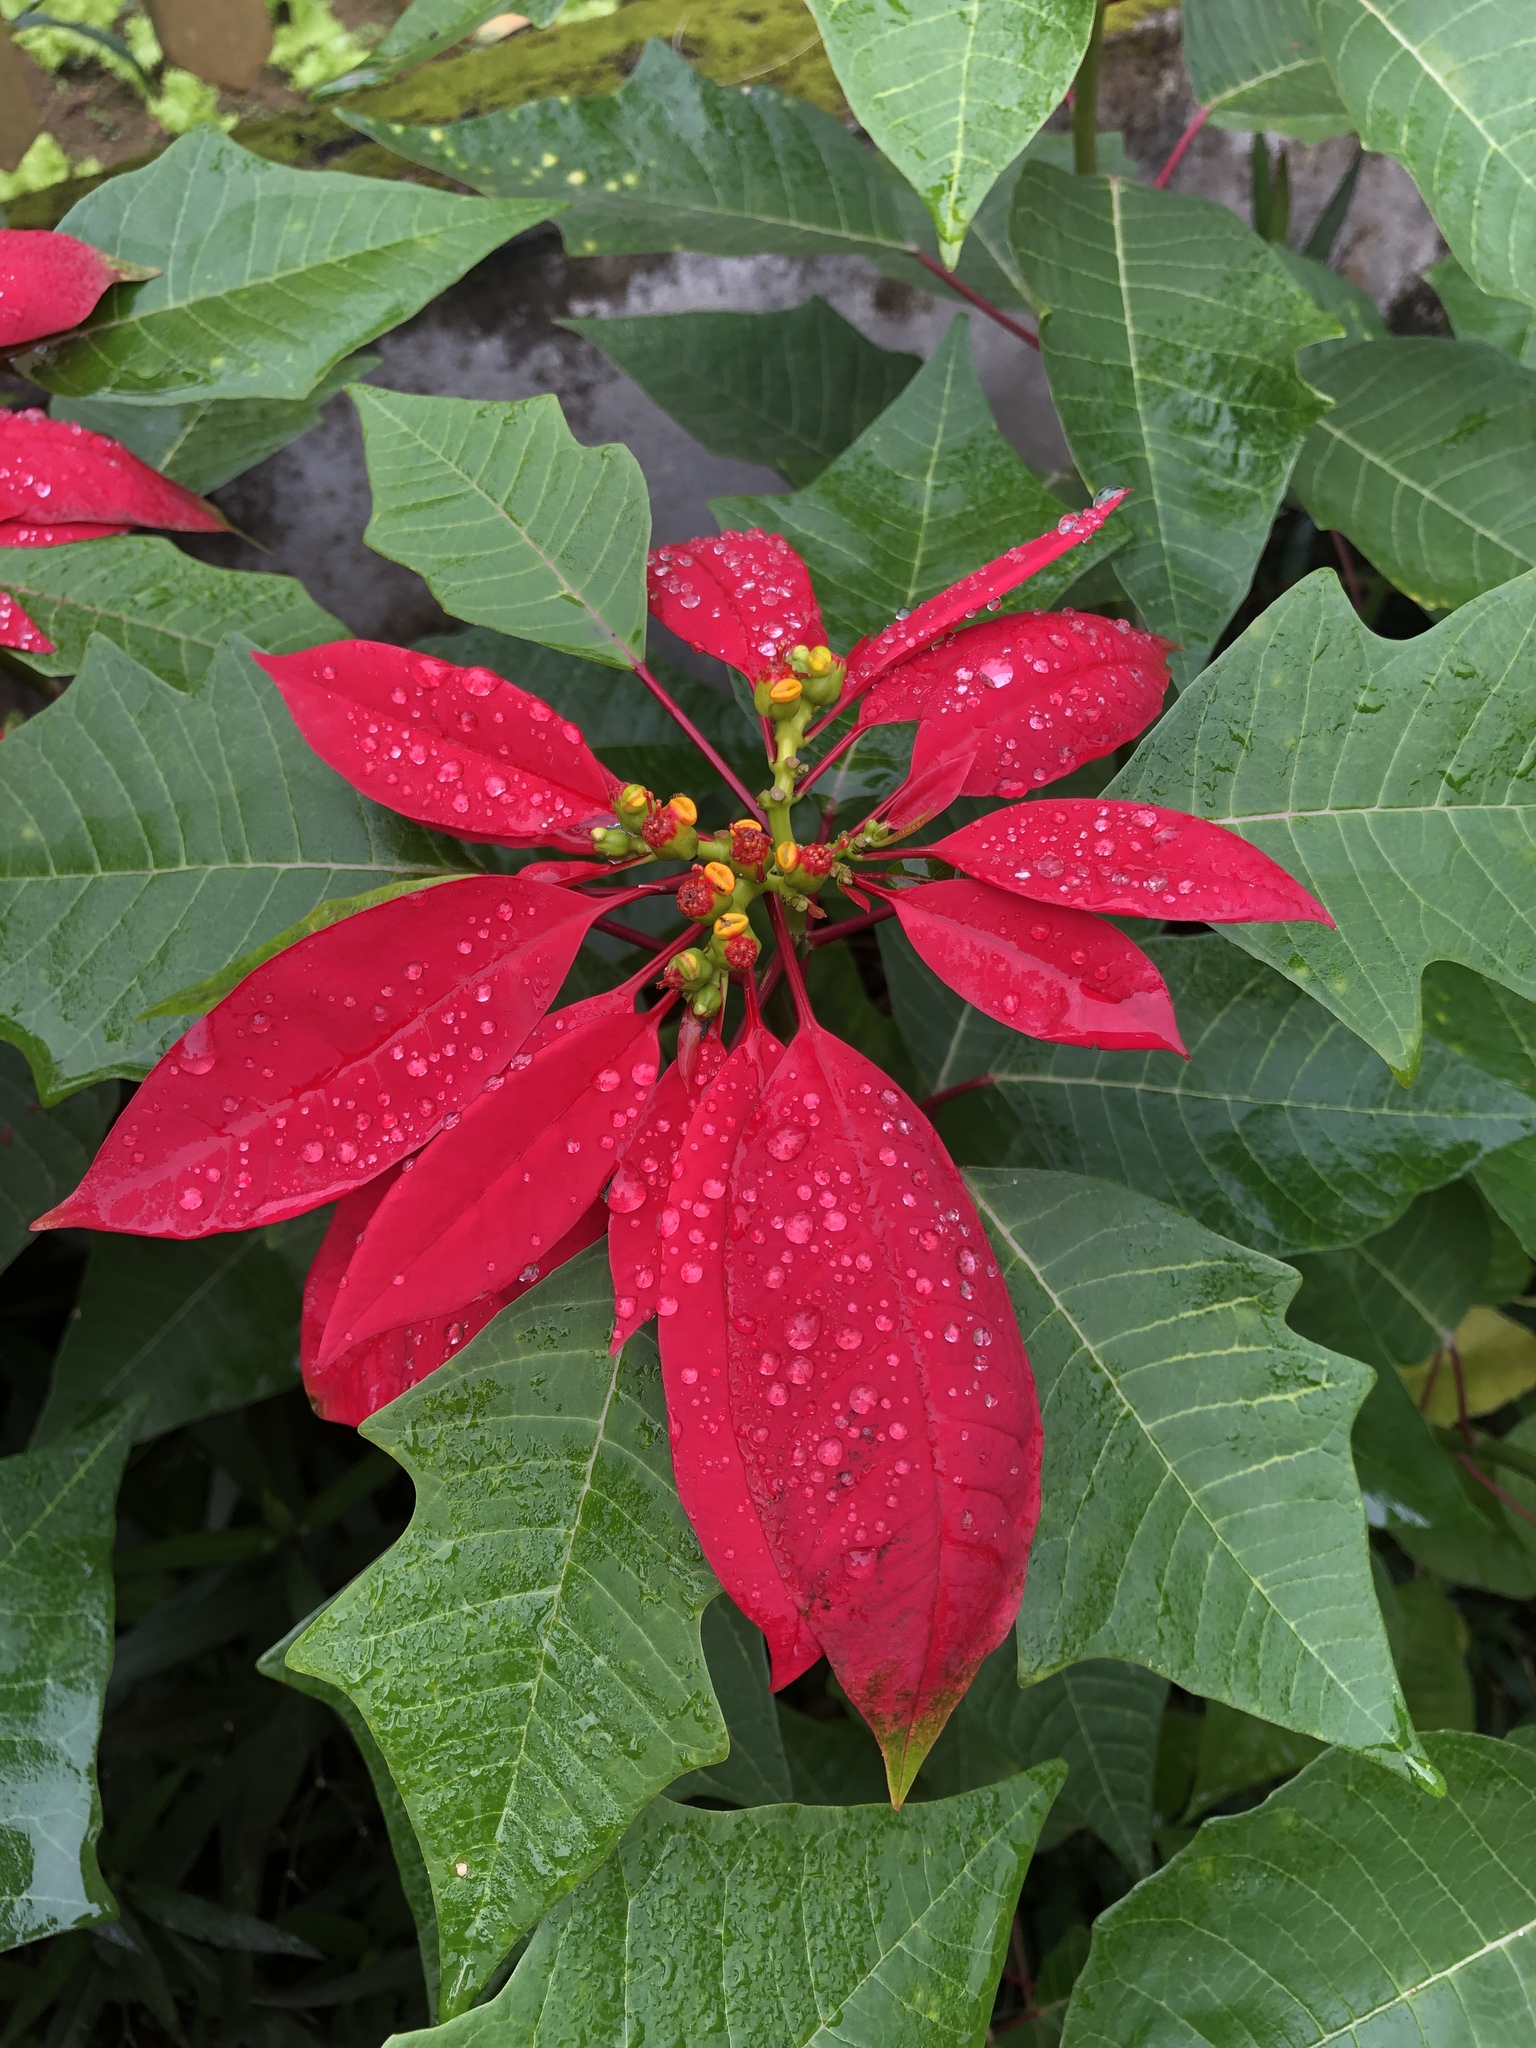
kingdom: Plantae
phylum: Tracheophyta
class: Magnoliopsida
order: Malpighiales
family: Euphorbiaceae
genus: Euphorbia
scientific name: Euphorbia pulcherrima
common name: Christmas-flower
